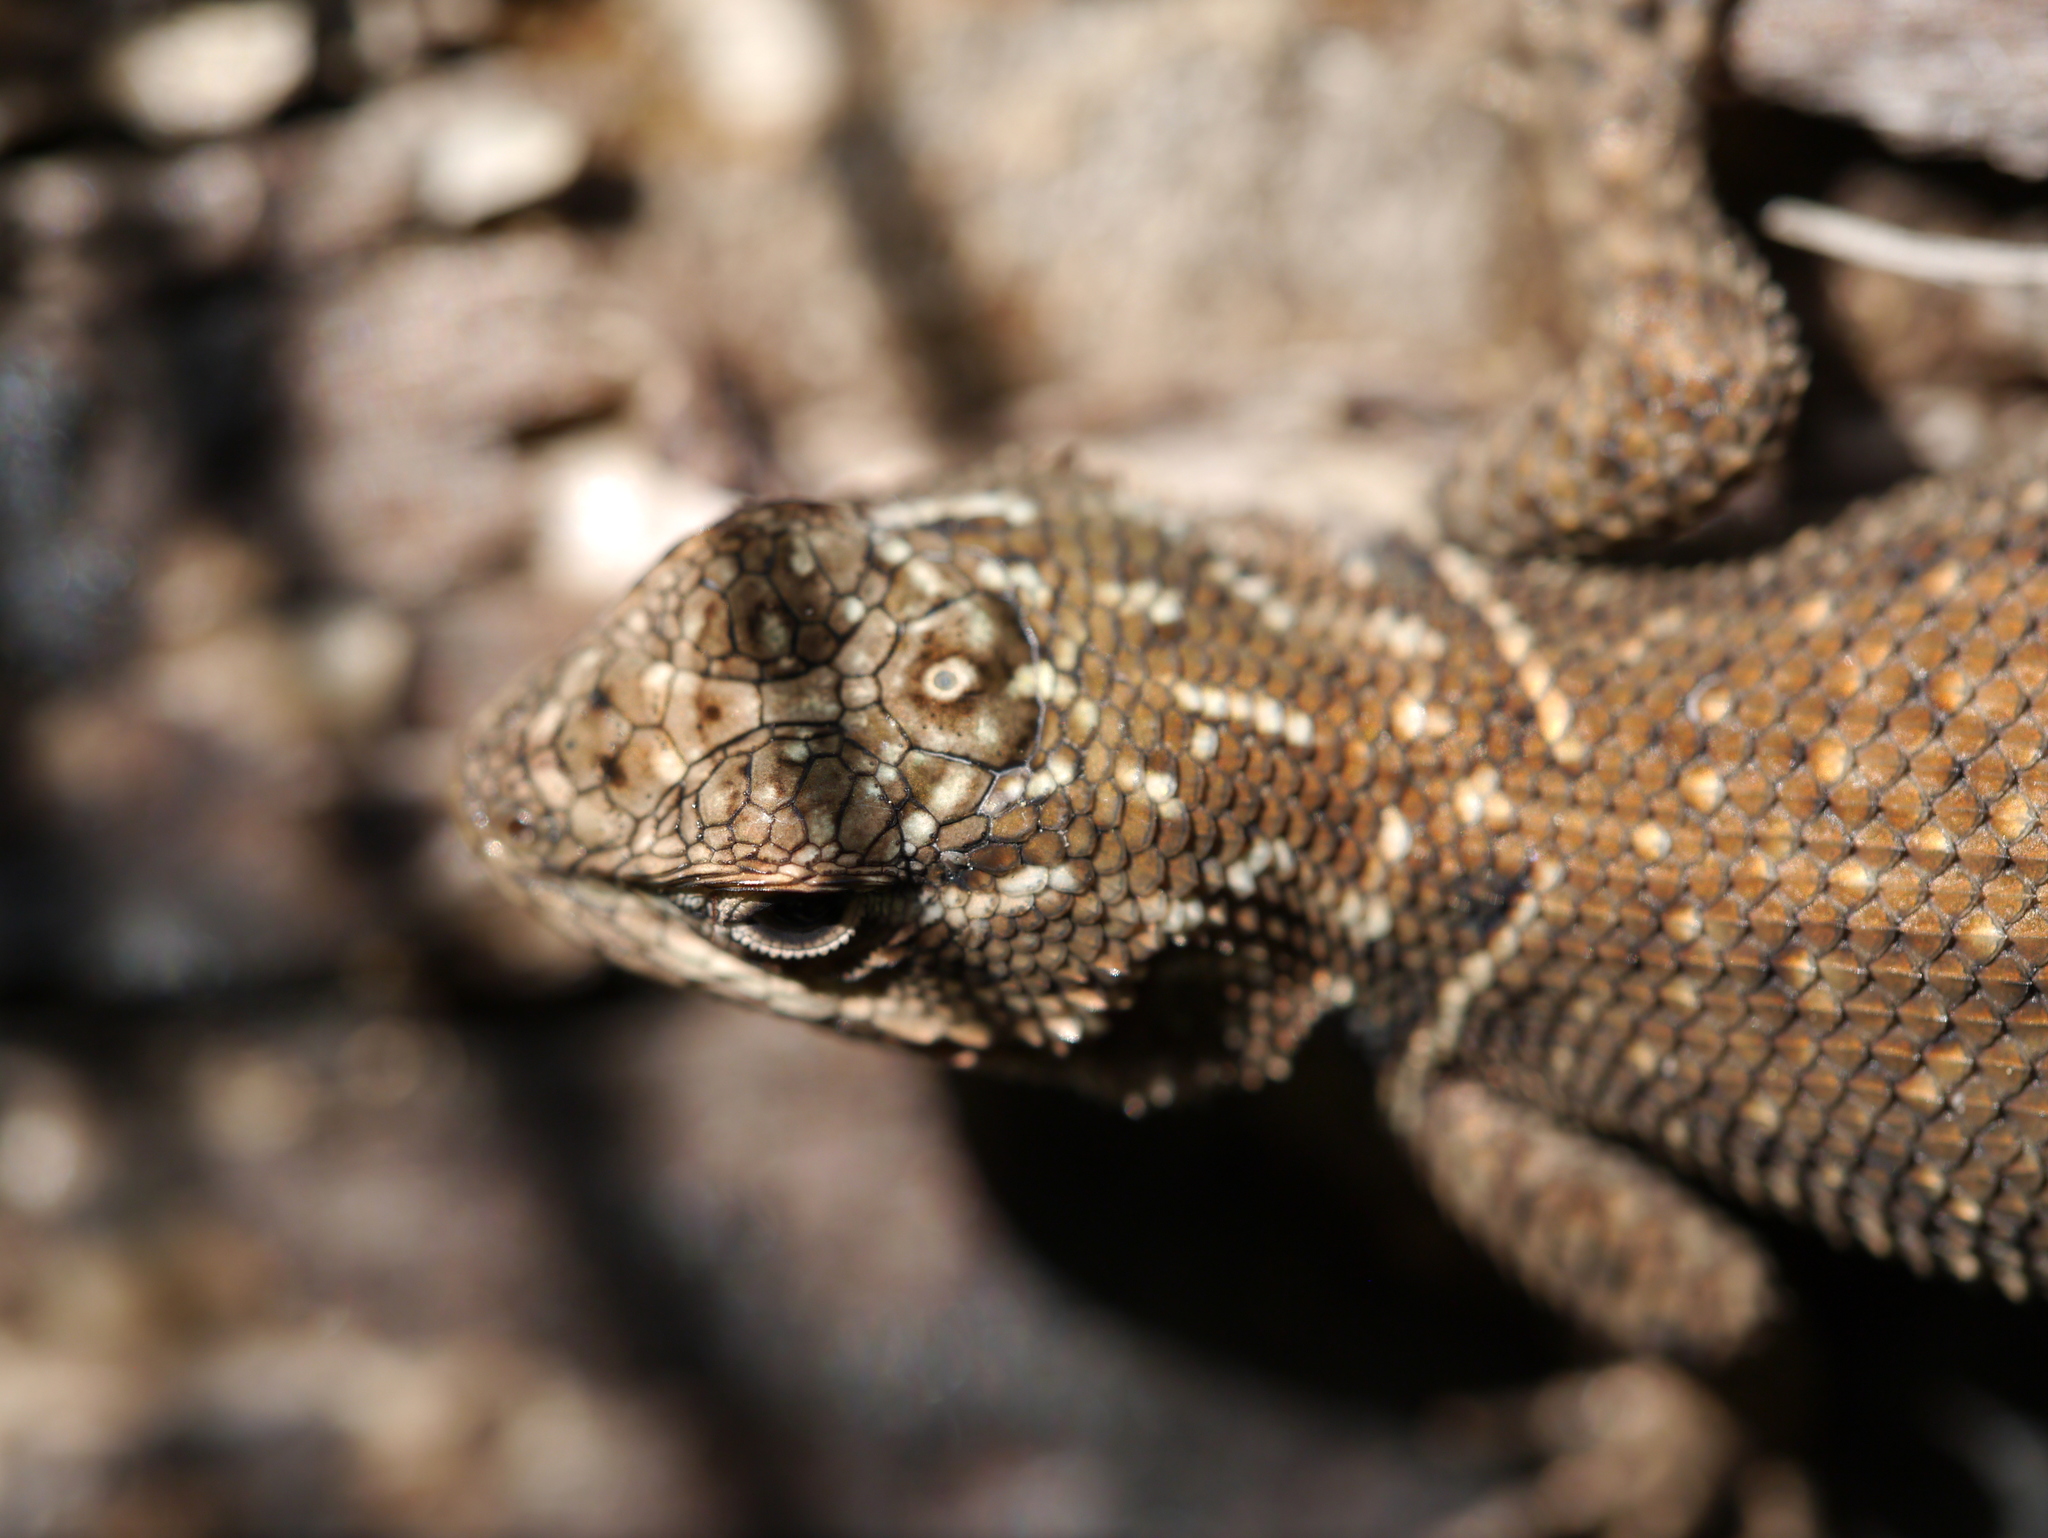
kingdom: Animalia
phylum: Chordata
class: Squamata
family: Phrynosomatidae
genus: Sceloporus
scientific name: Sceloporus jarrovii
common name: Yarrow's spiny lizard
